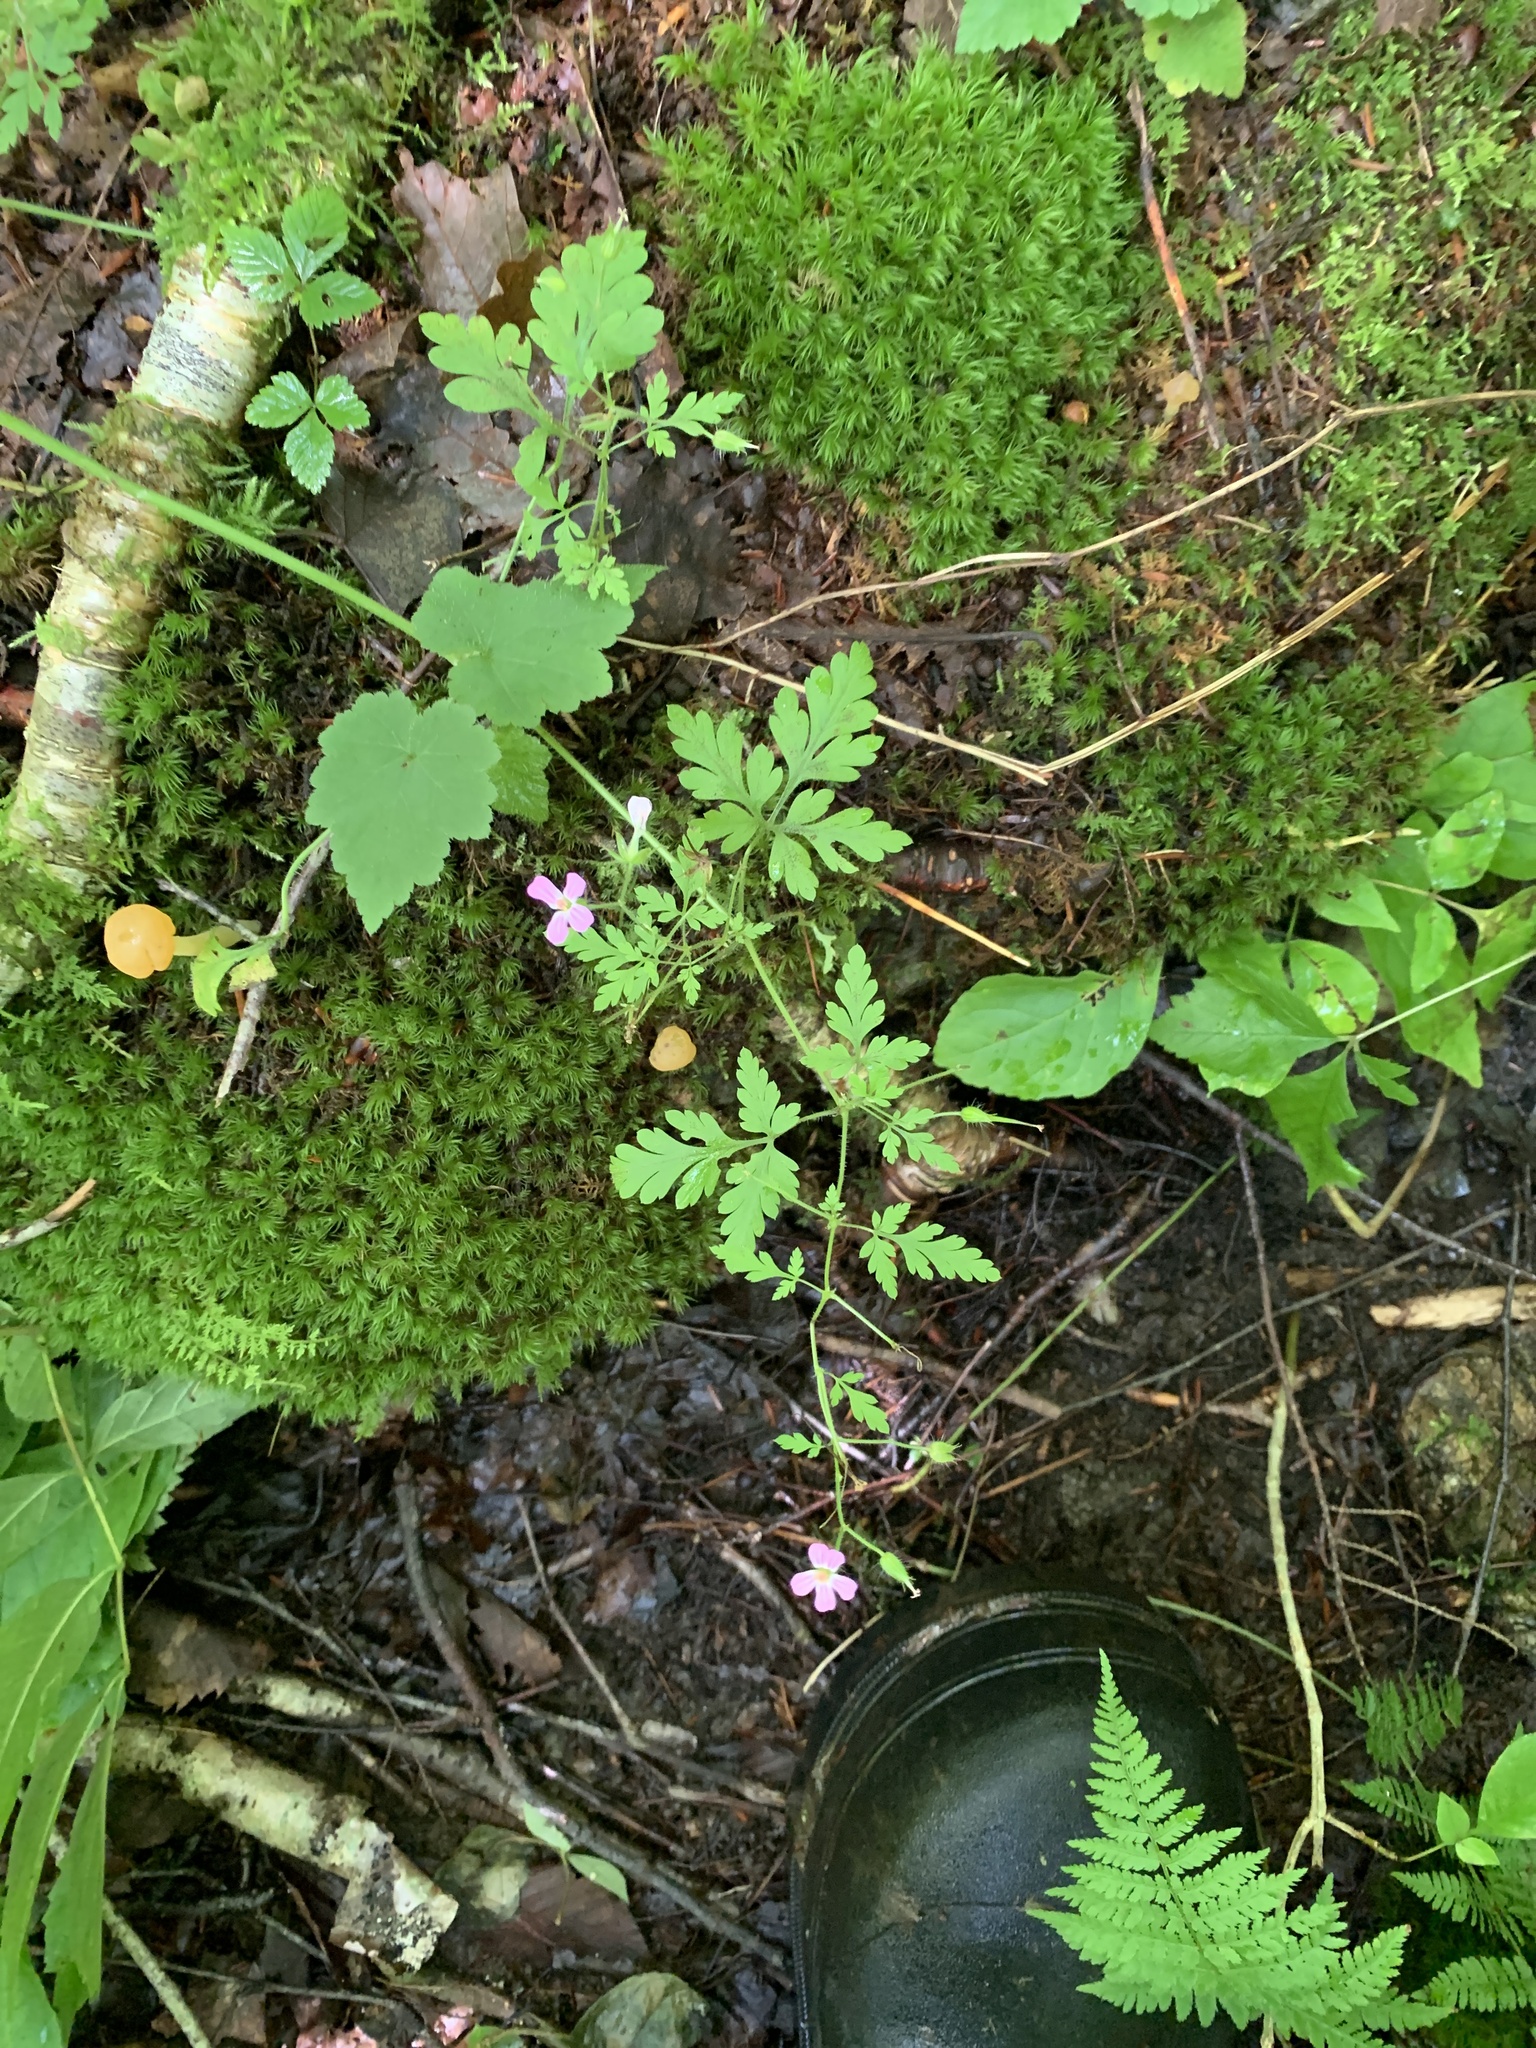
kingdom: Plantae
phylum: Tracheophyta
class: Magnoliopsida
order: Geraniales
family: Geraniaceae
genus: Geranium
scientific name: Geranium robertianum
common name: Herb-robert
